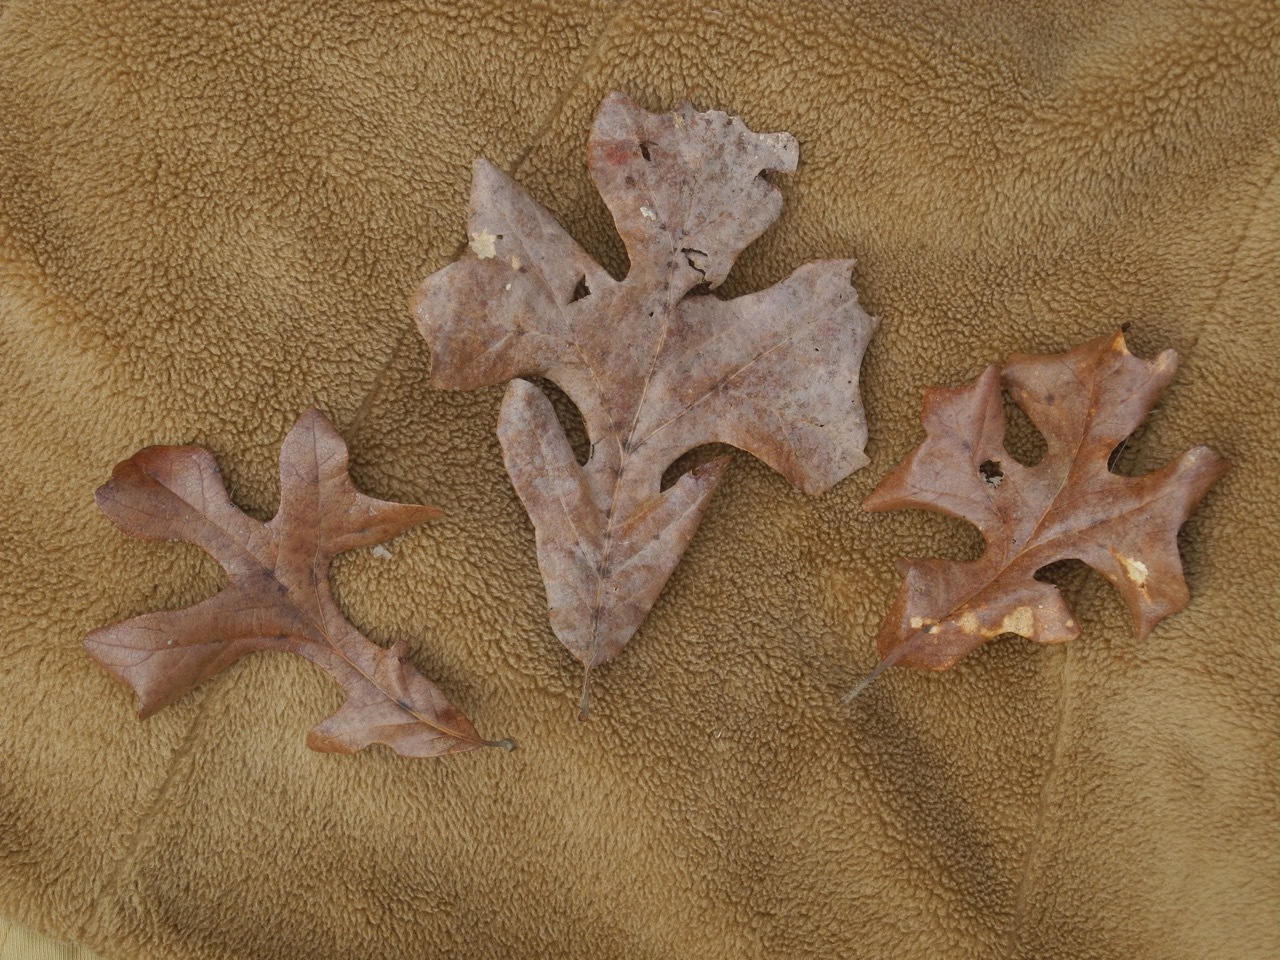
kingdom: Plantae
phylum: Tracheophyta
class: Magnoliopsida
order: Fagales
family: Fagaceae
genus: Quercus
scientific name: Quercus stellata
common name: Post oak
